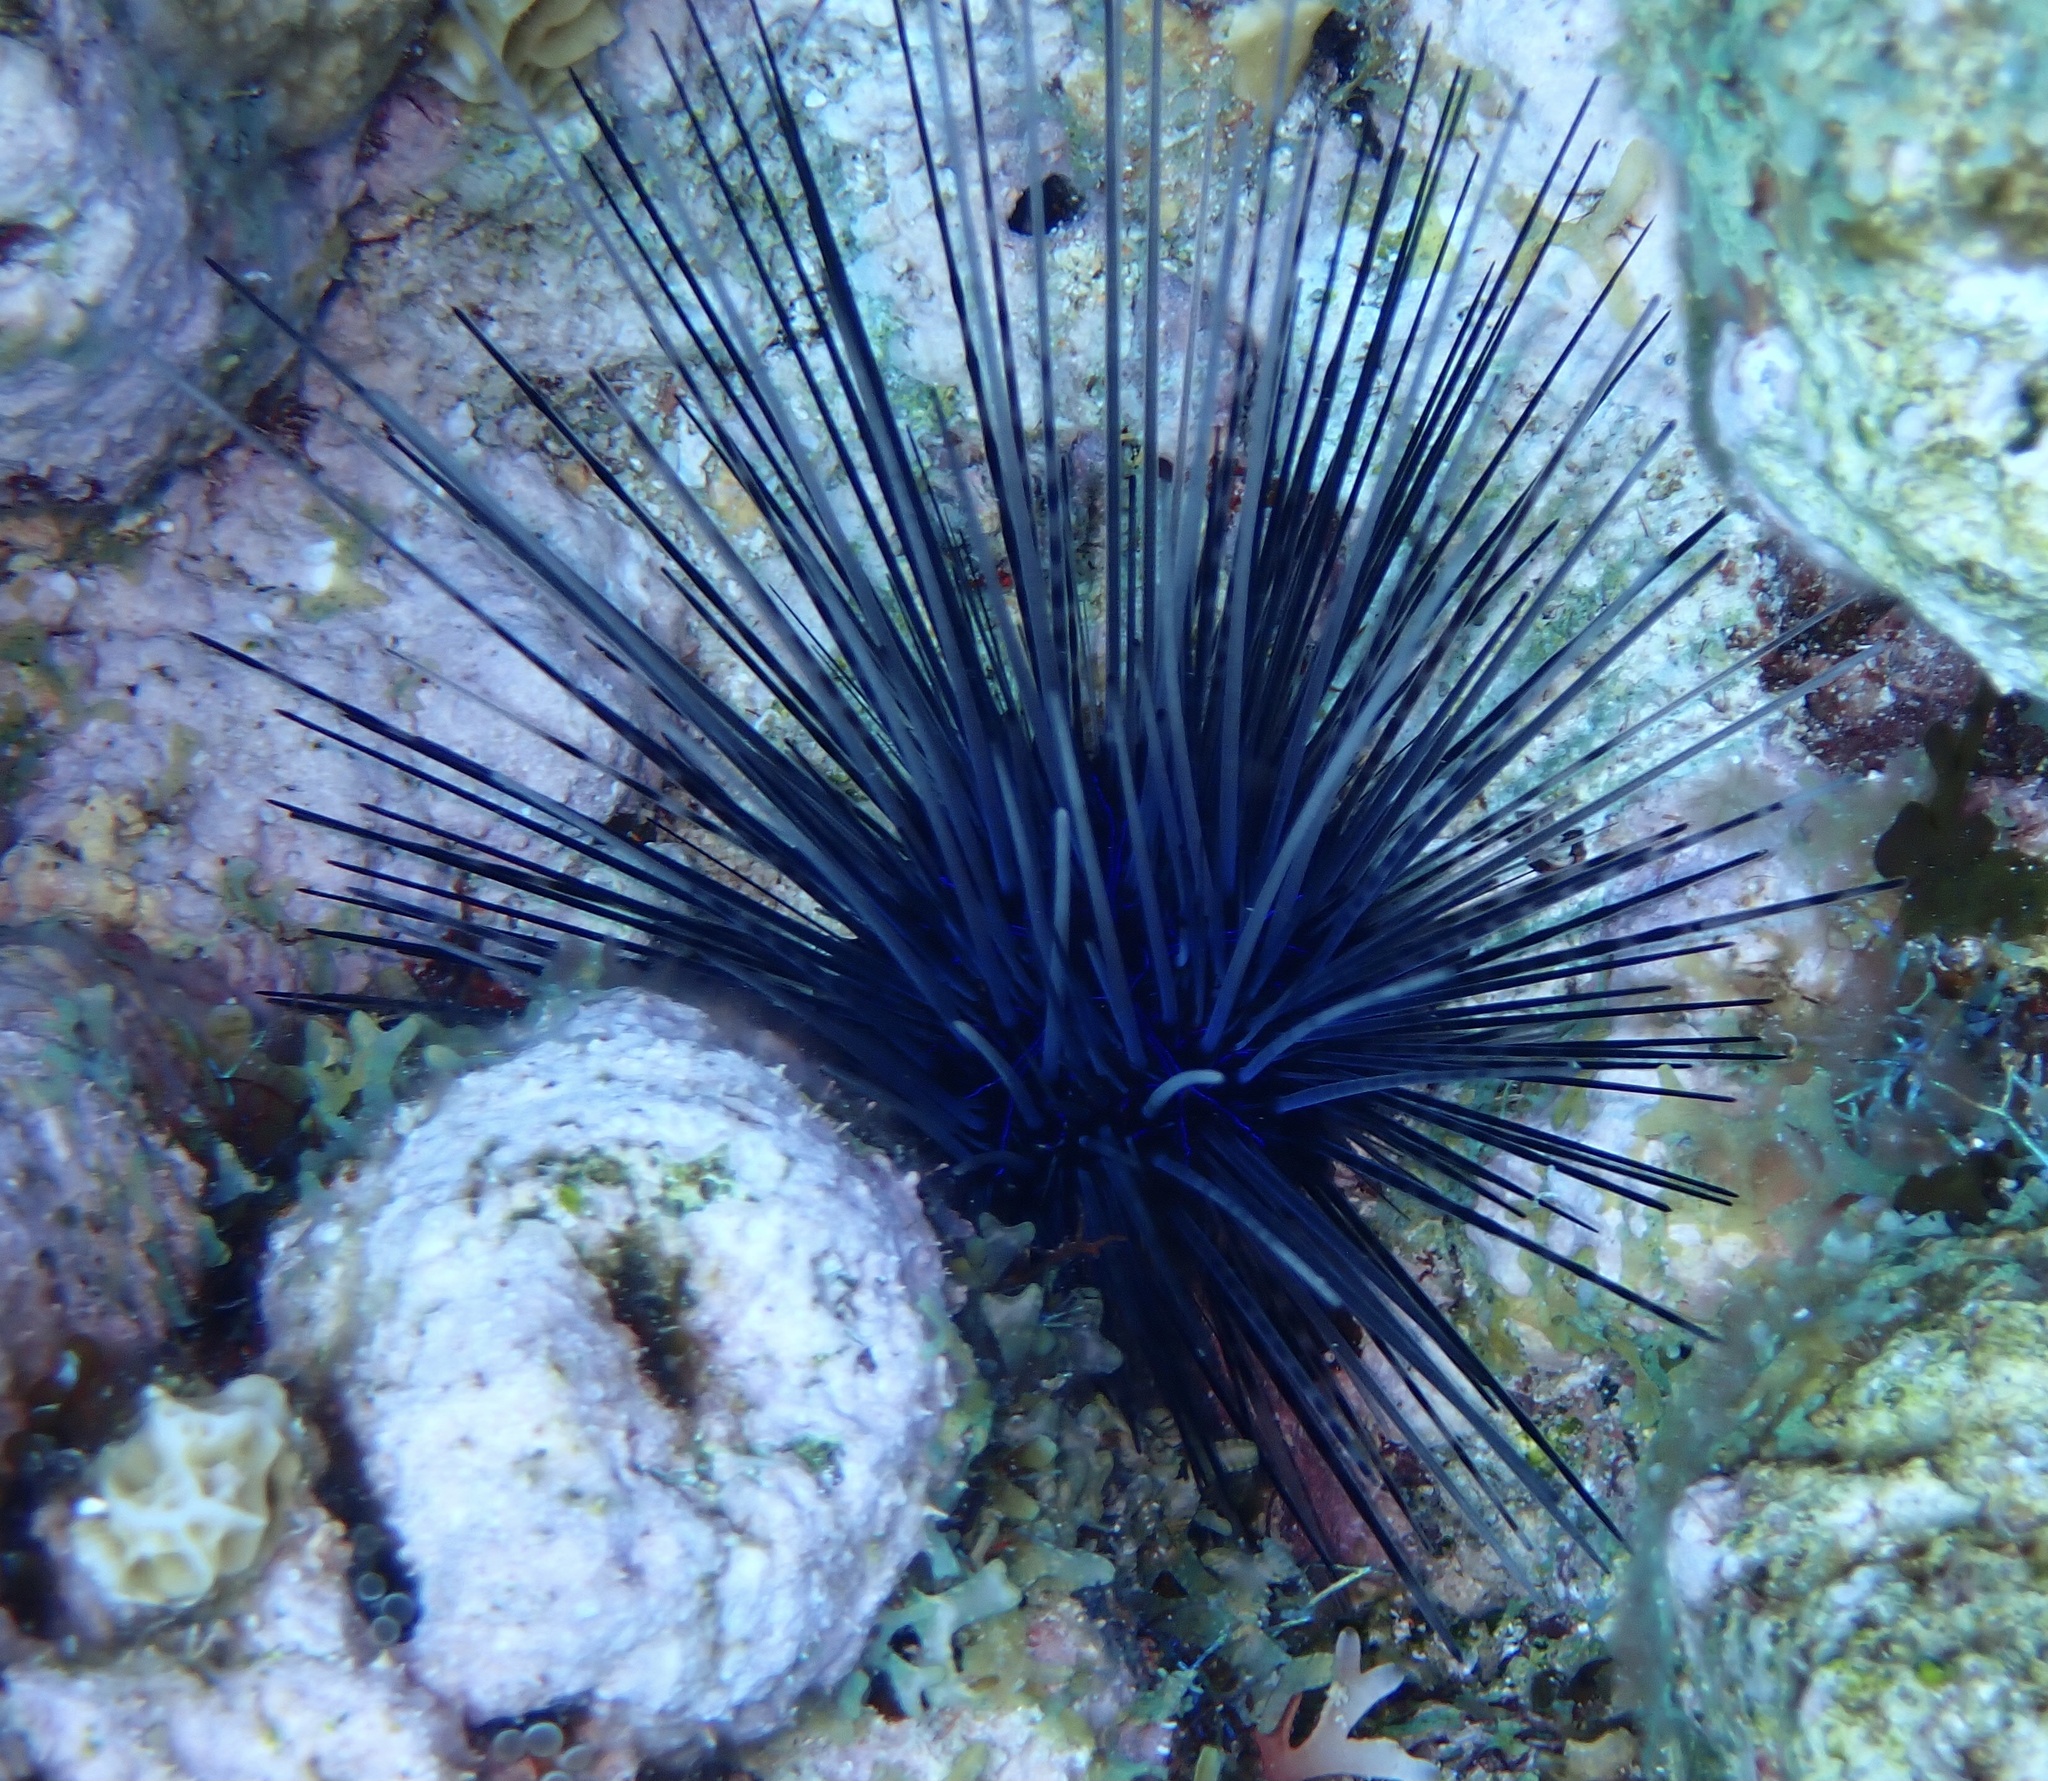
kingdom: Animalia
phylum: Echinodermata
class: Echinoidea
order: Diadematoida
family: Diadematidae
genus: Diadema
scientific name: Diadema antillarum
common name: Spiny urchin
